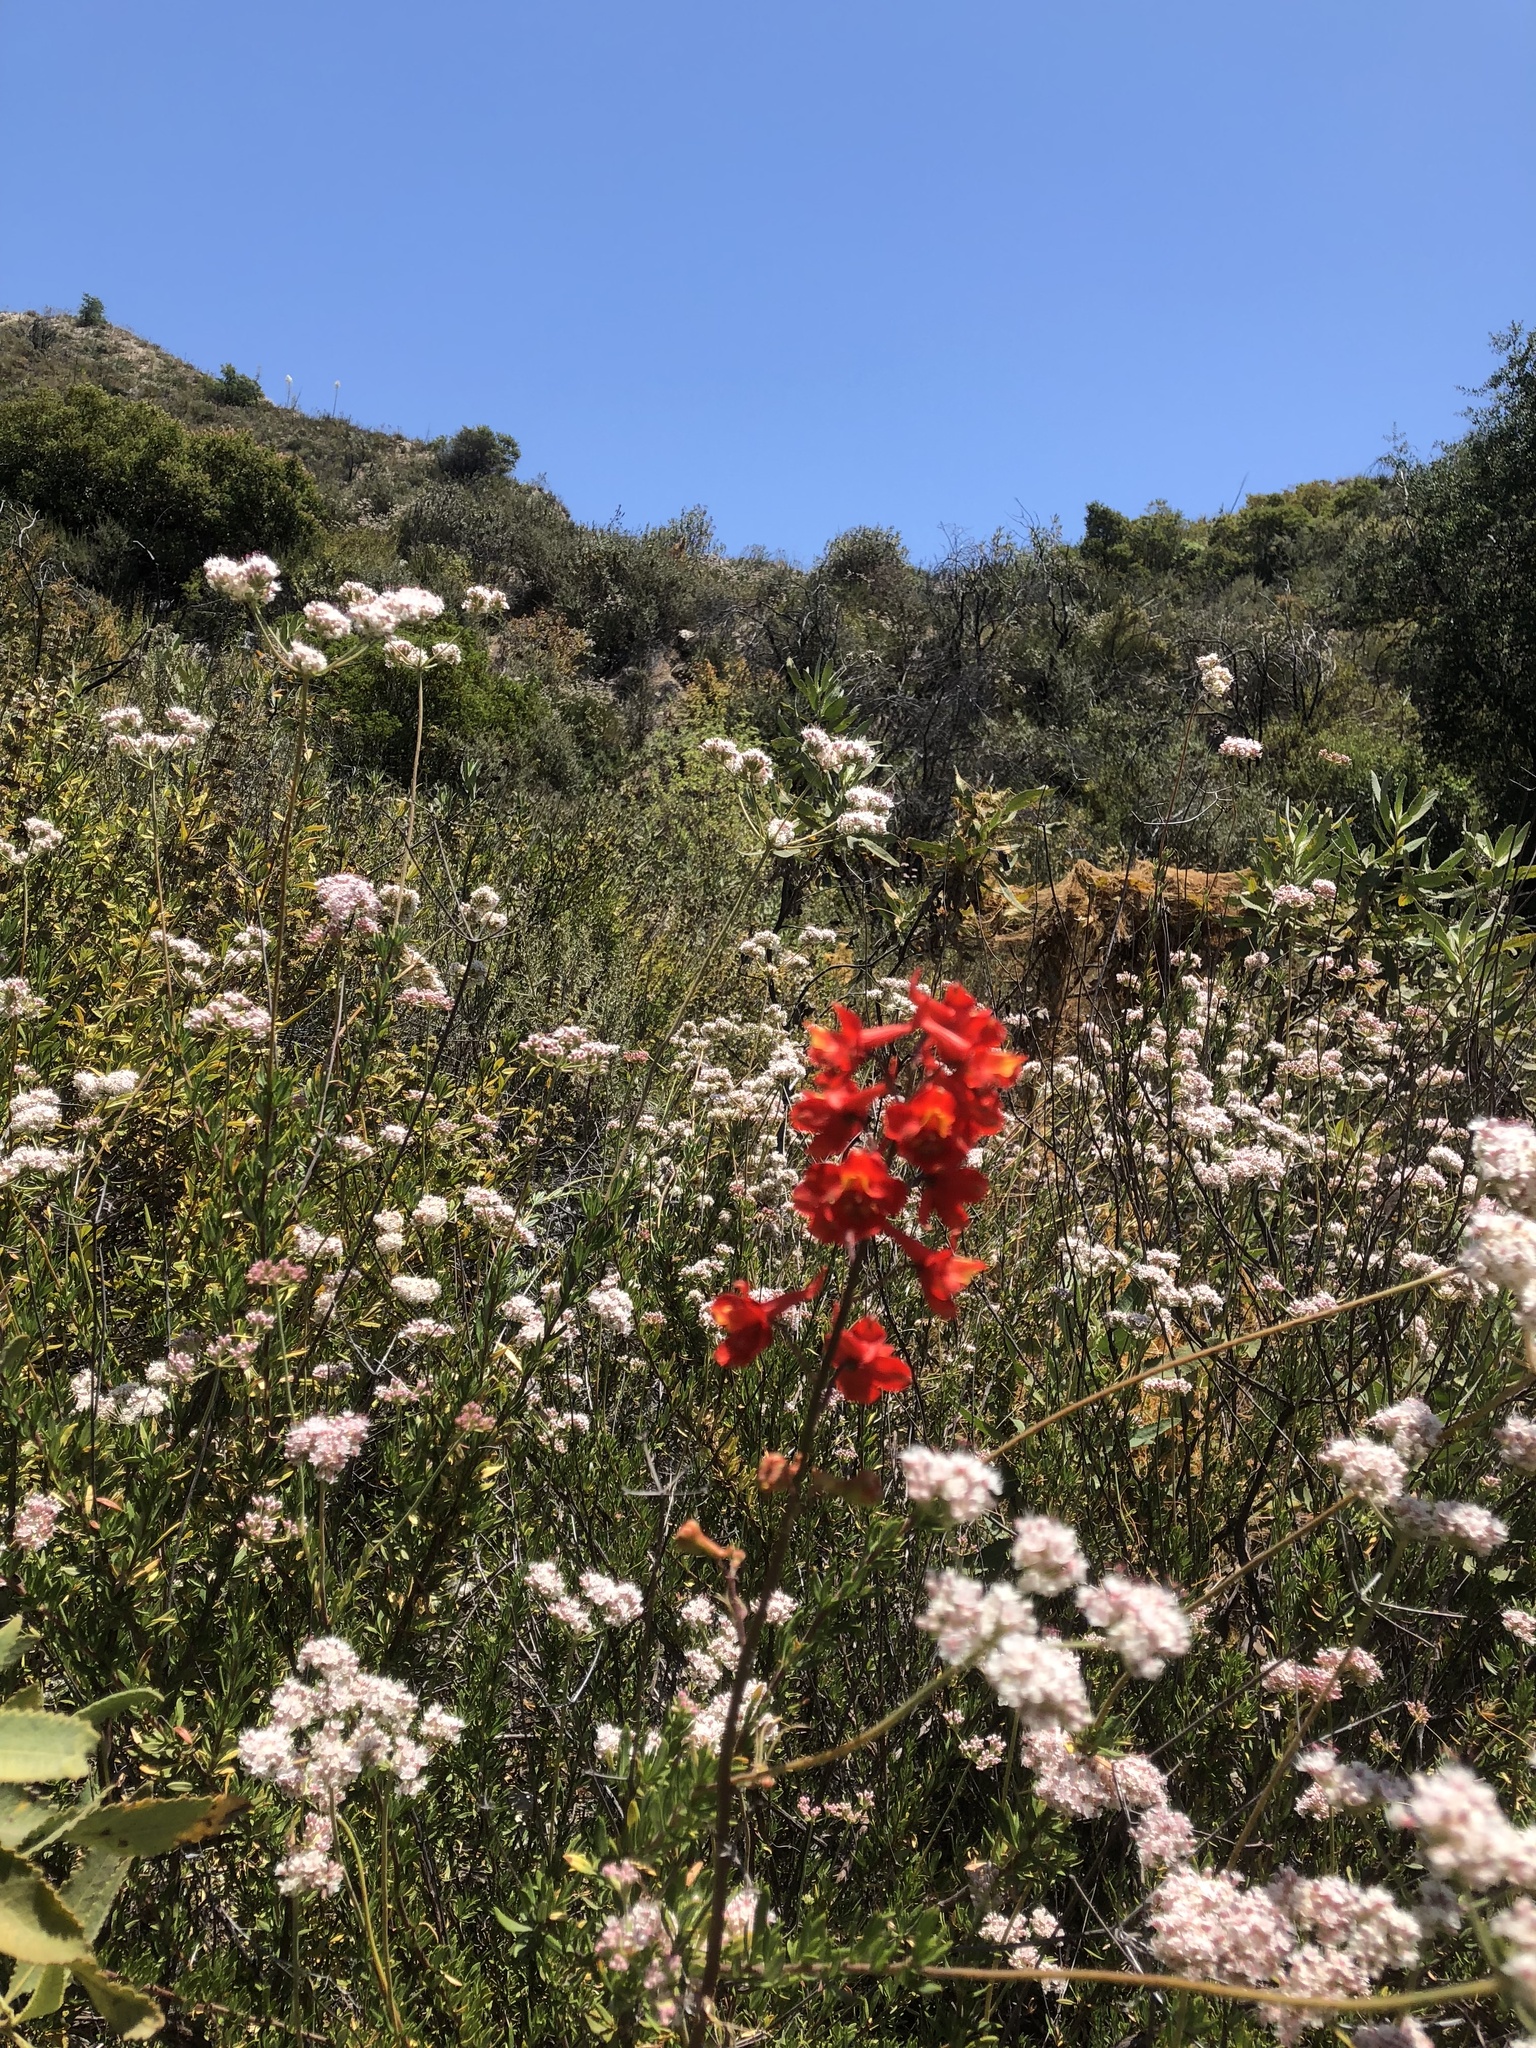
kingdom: Plantae
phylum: Tracheophyta
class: Magnoliopsida
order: Ranunculales
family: Ranunculaceae
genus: Delphinium
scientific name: Delphinium cardinale
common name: Scarlet larkspur
